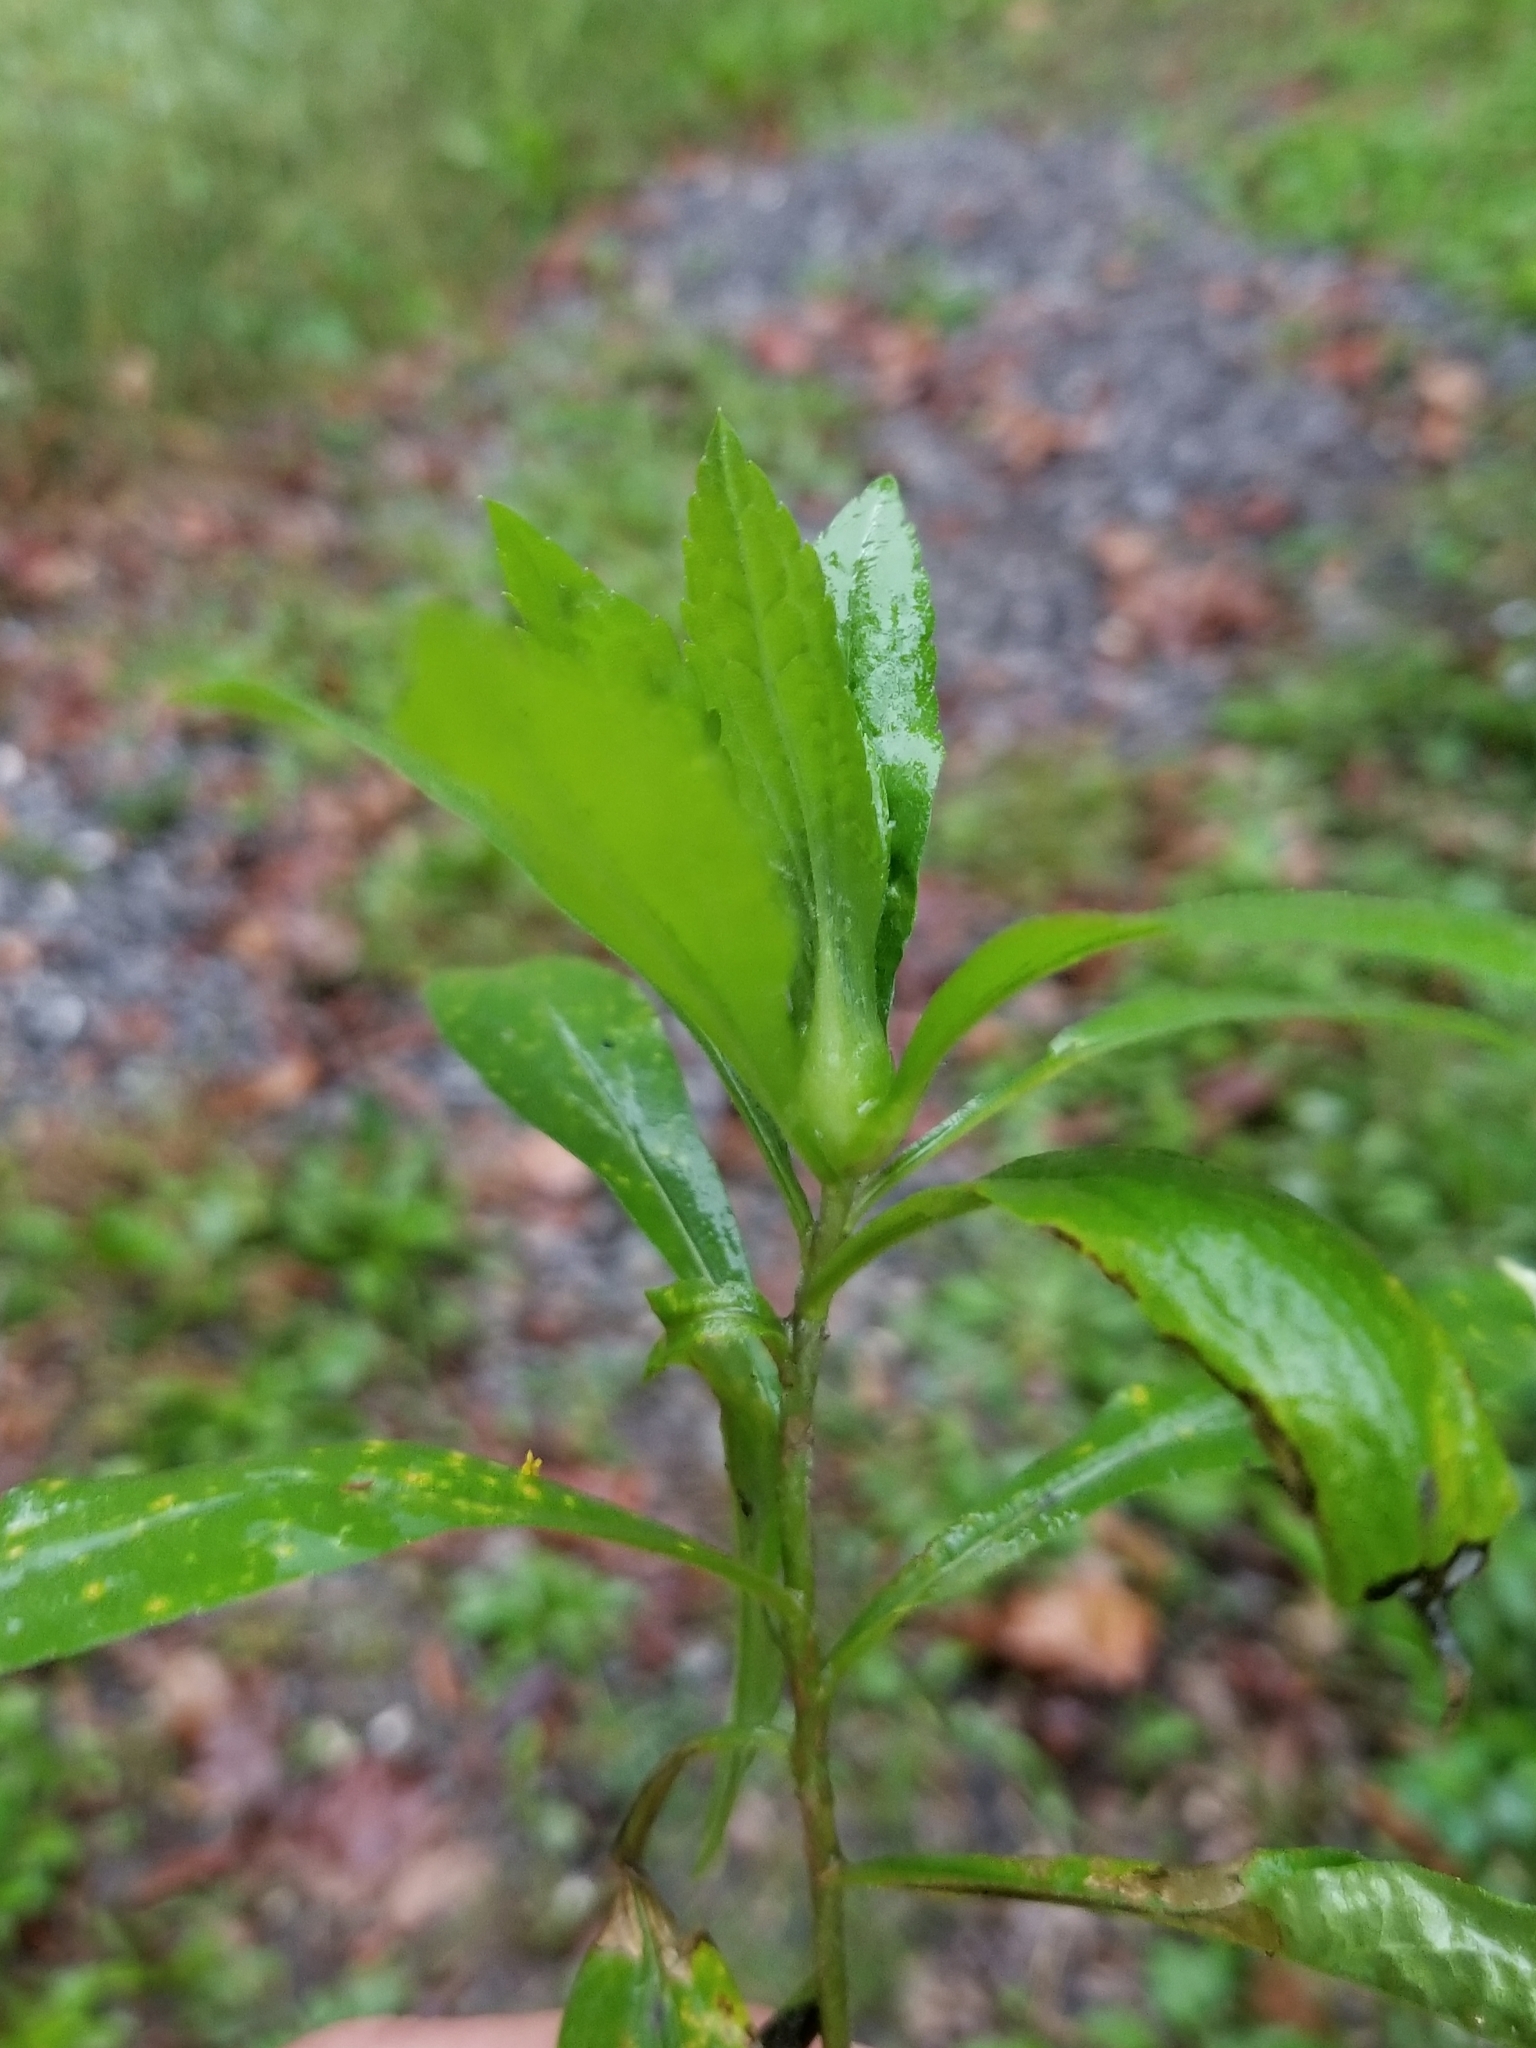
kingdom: Plantae
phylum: Tracheophyta
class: Magnoliopsida
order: Asterales
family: Asteraceae
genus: Solidago
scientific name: Solidago canadensis
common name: Canada goldenrod
